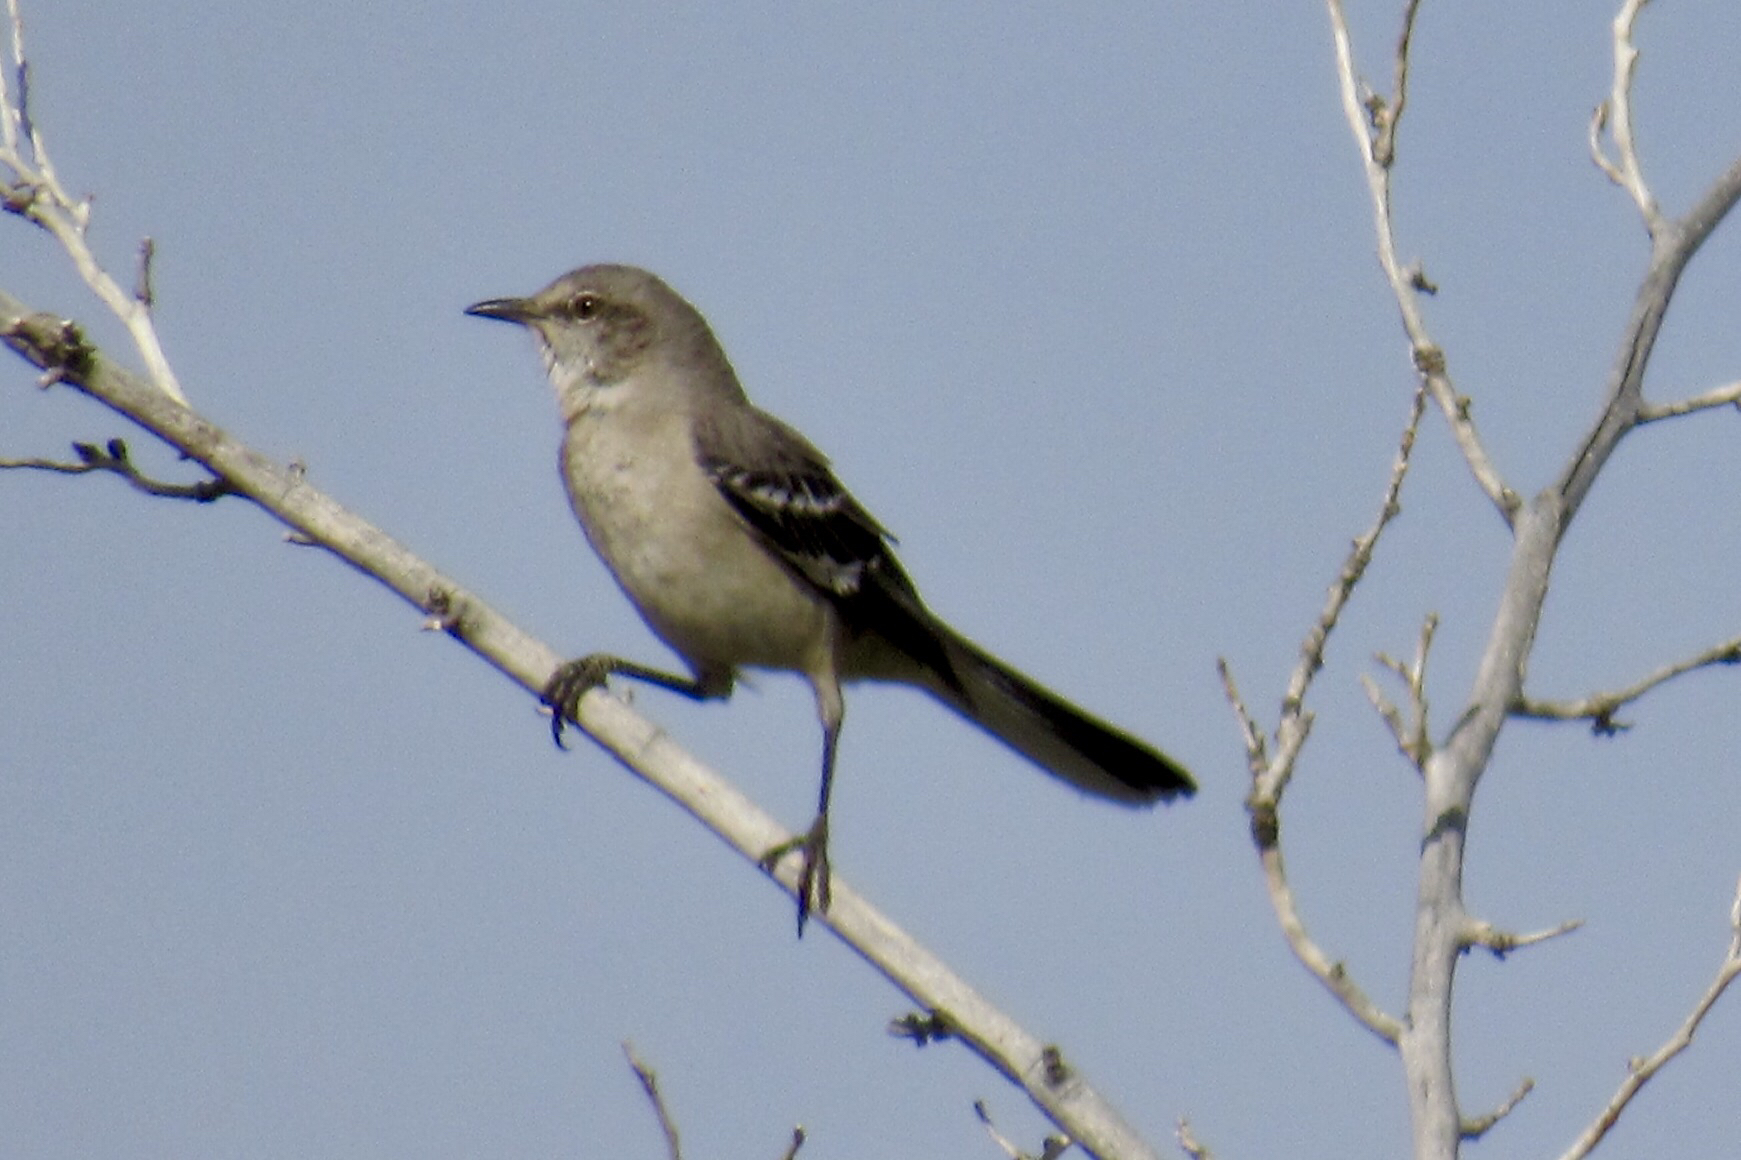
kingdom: Animalia
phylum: Chordata
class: Aves
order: Passeriformes
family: Mimidae
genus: Mimus
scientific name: Mimus polyglottos
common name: Northern mockingbird
